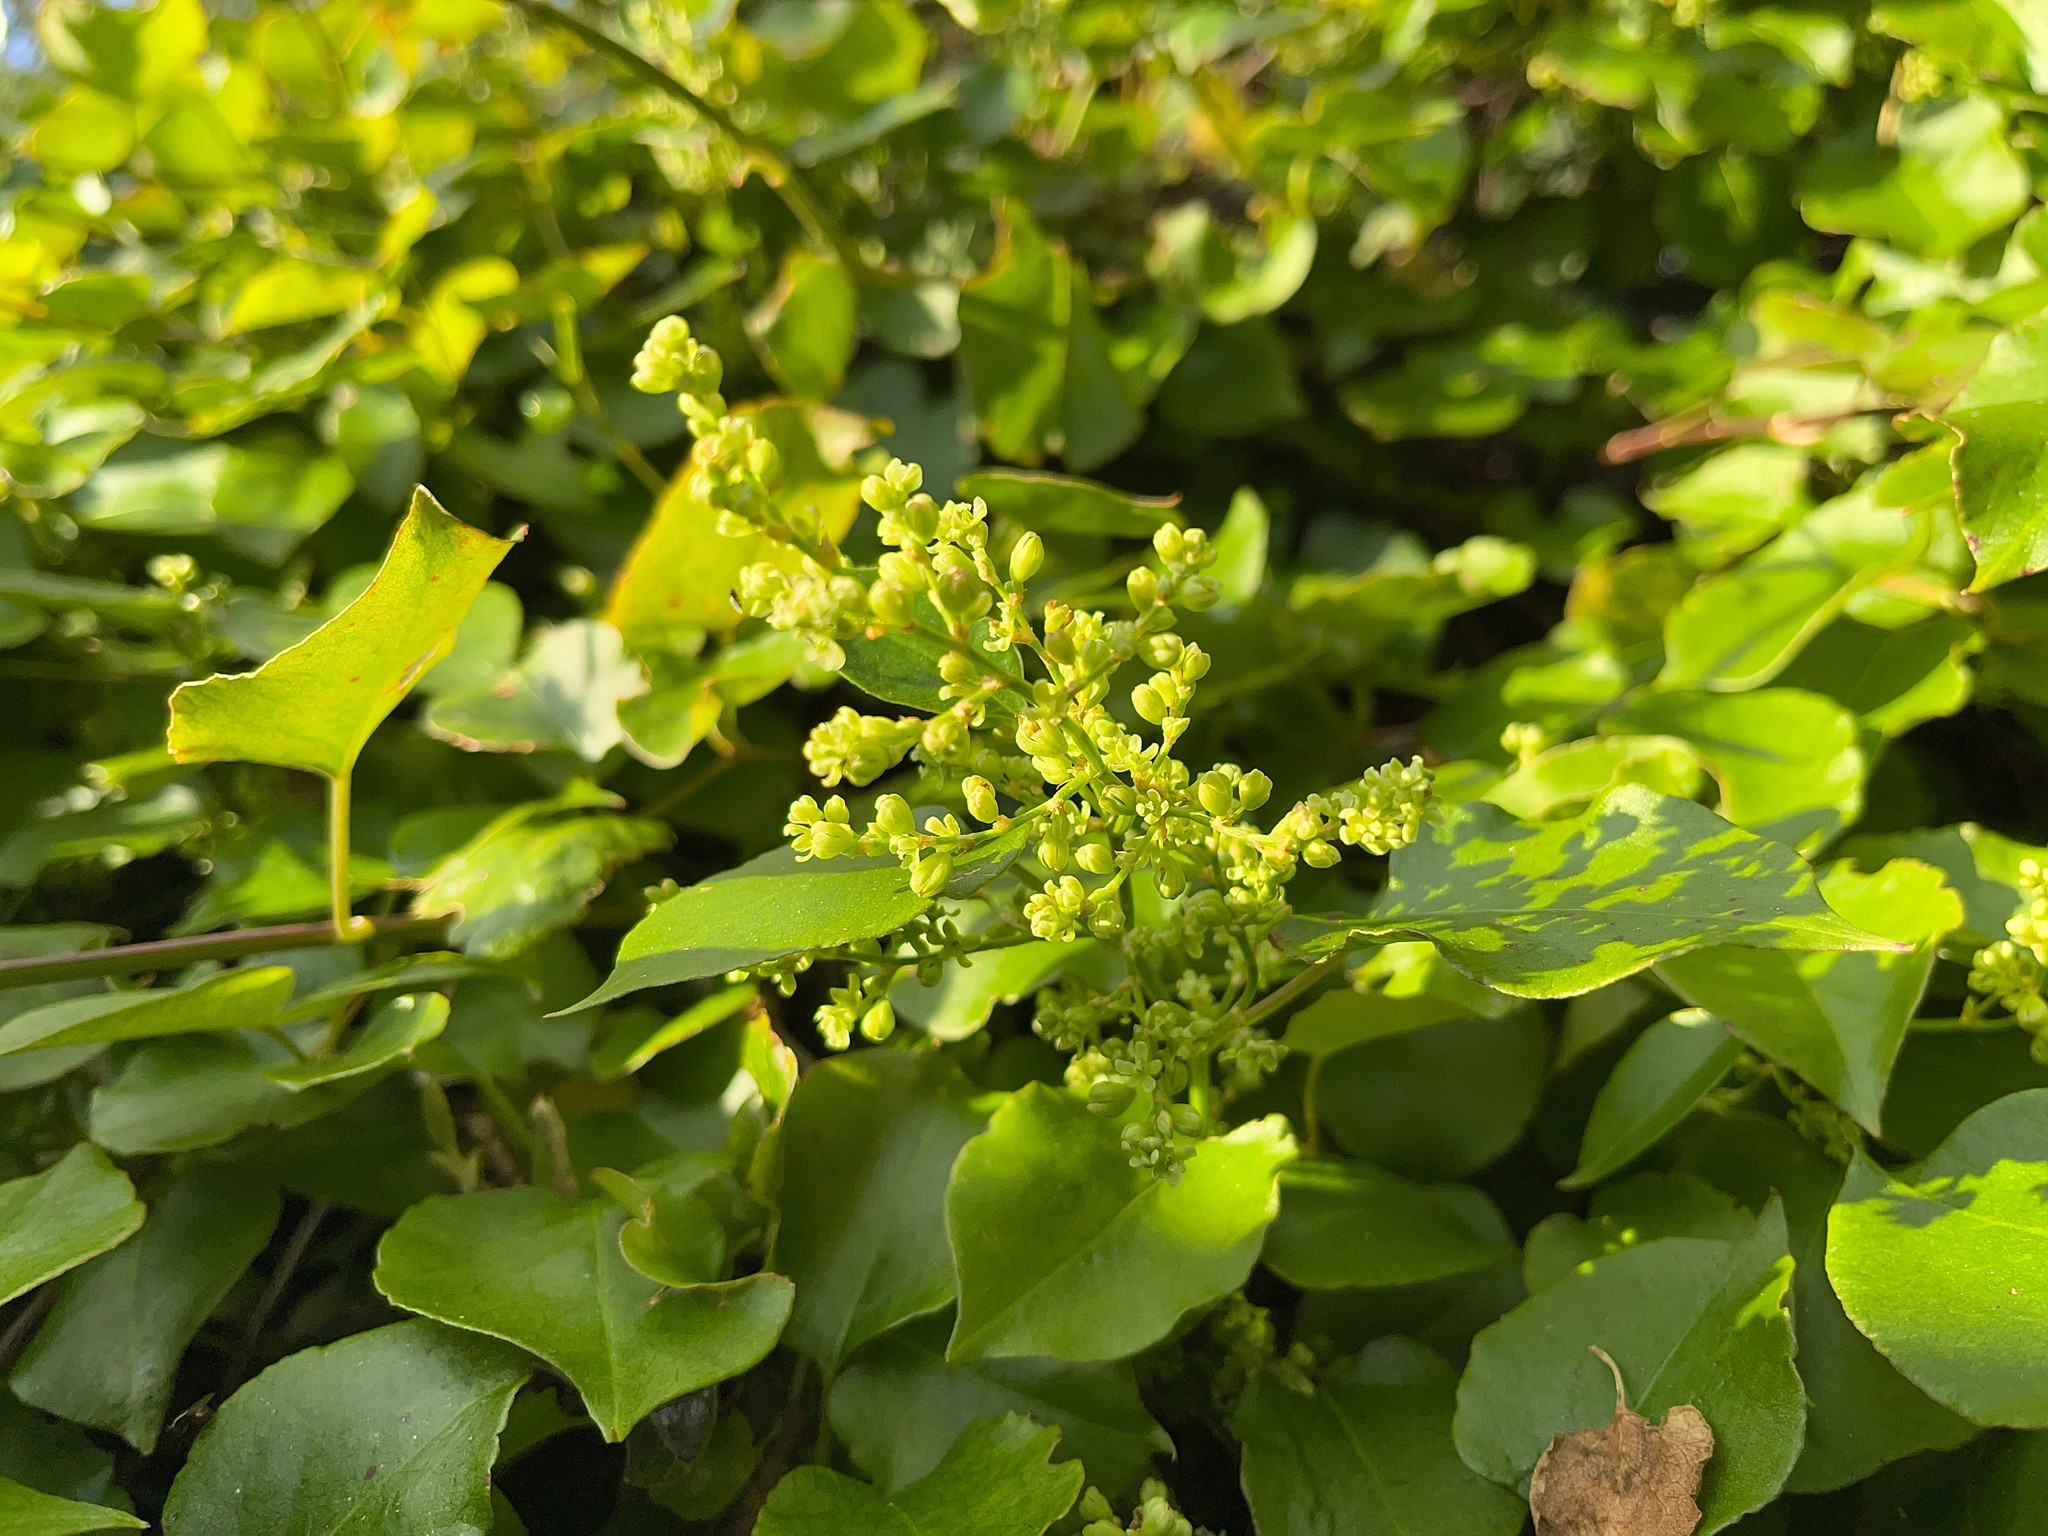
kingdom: Plantae
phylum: Tracheophyta
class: Magnoliopsida
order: Caryophyllales
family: Polygonaceae
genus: Muehlenbeckia
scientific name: Muehlenbeckia australis
